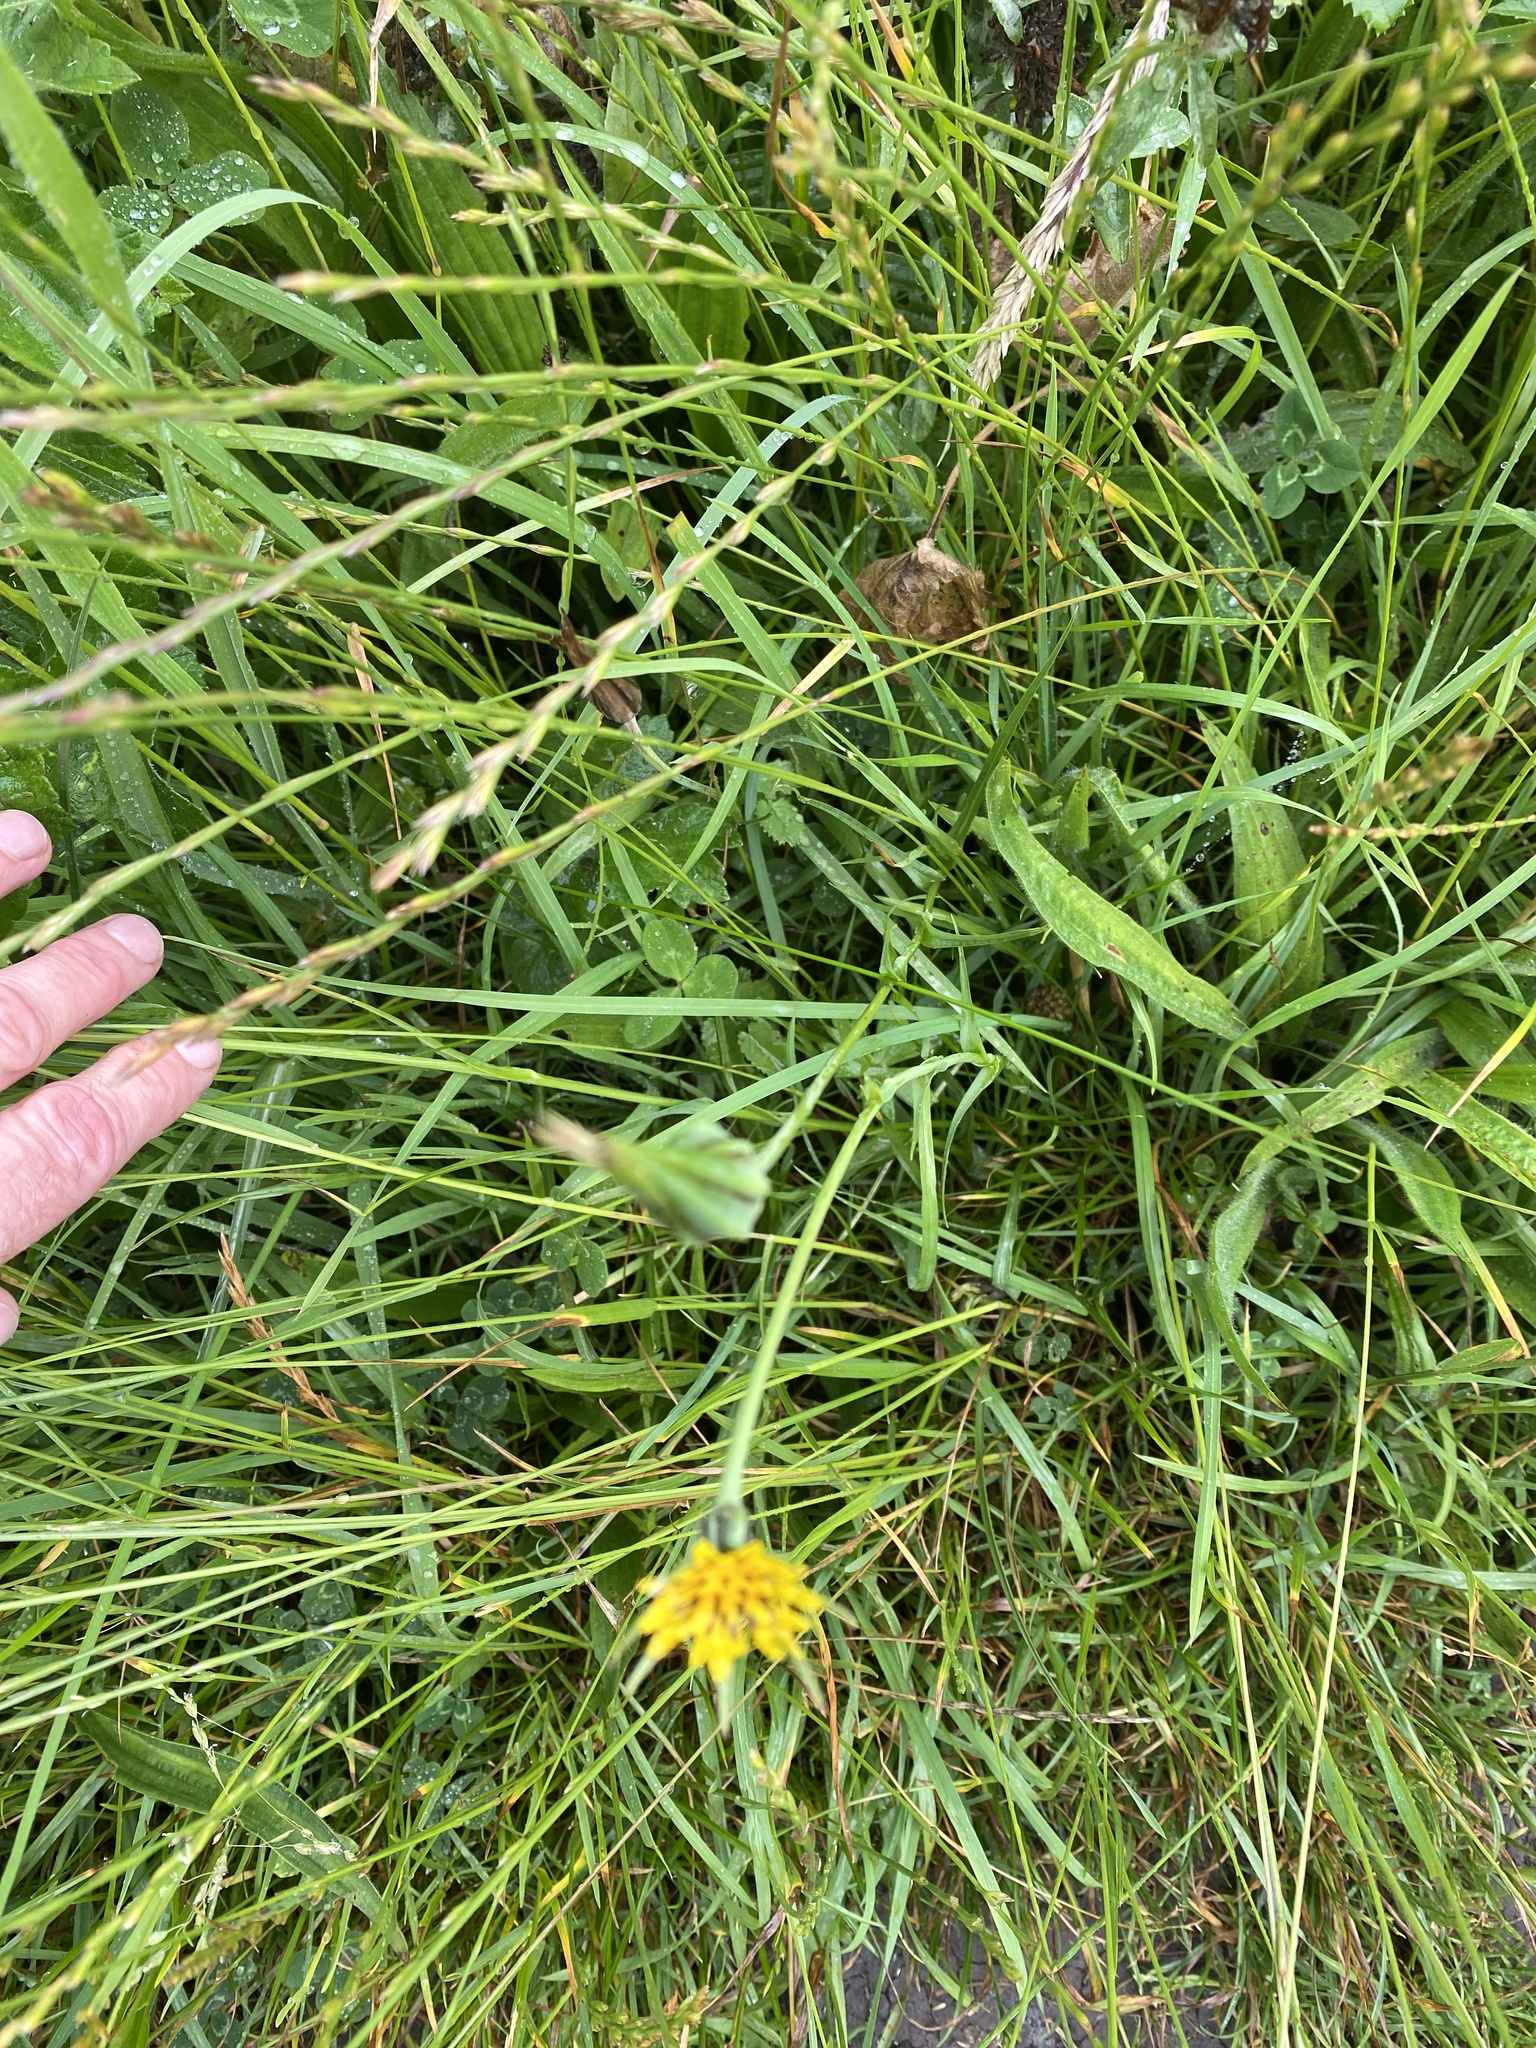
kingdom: Plantae
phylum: Tracheophyta
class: Magnoliopsida
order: Asterales
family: Asteraceae
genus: Tragopogon
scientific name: Tragopogon pratensis
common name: Goat's-beard
